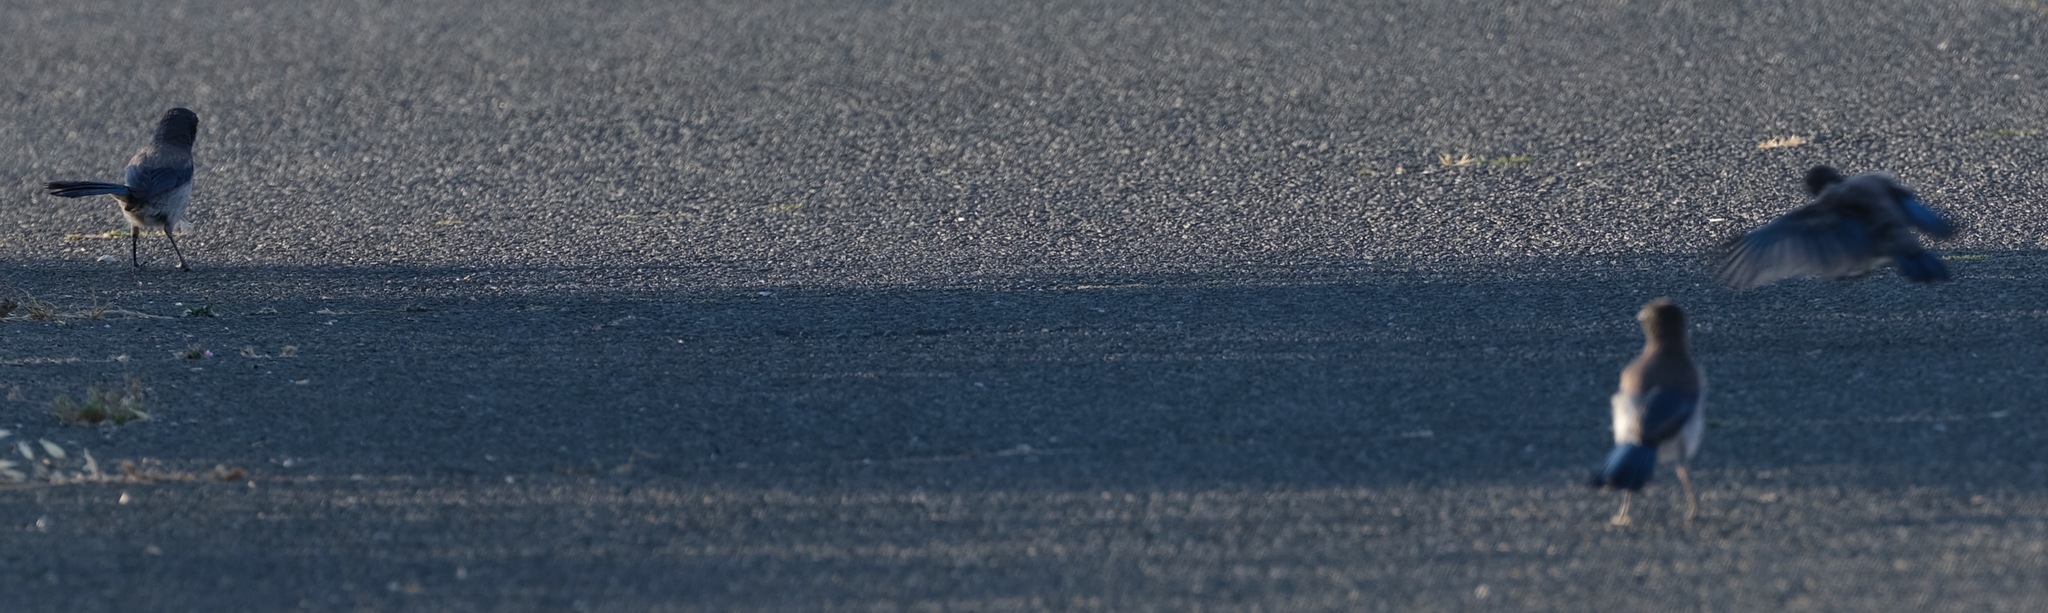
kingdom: Animalia
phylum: Chordata
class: Aves
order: Passeriformes
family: Corvidae
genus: Aphelocoma
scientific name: Aphelocoma californica
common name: California scrub-jay
